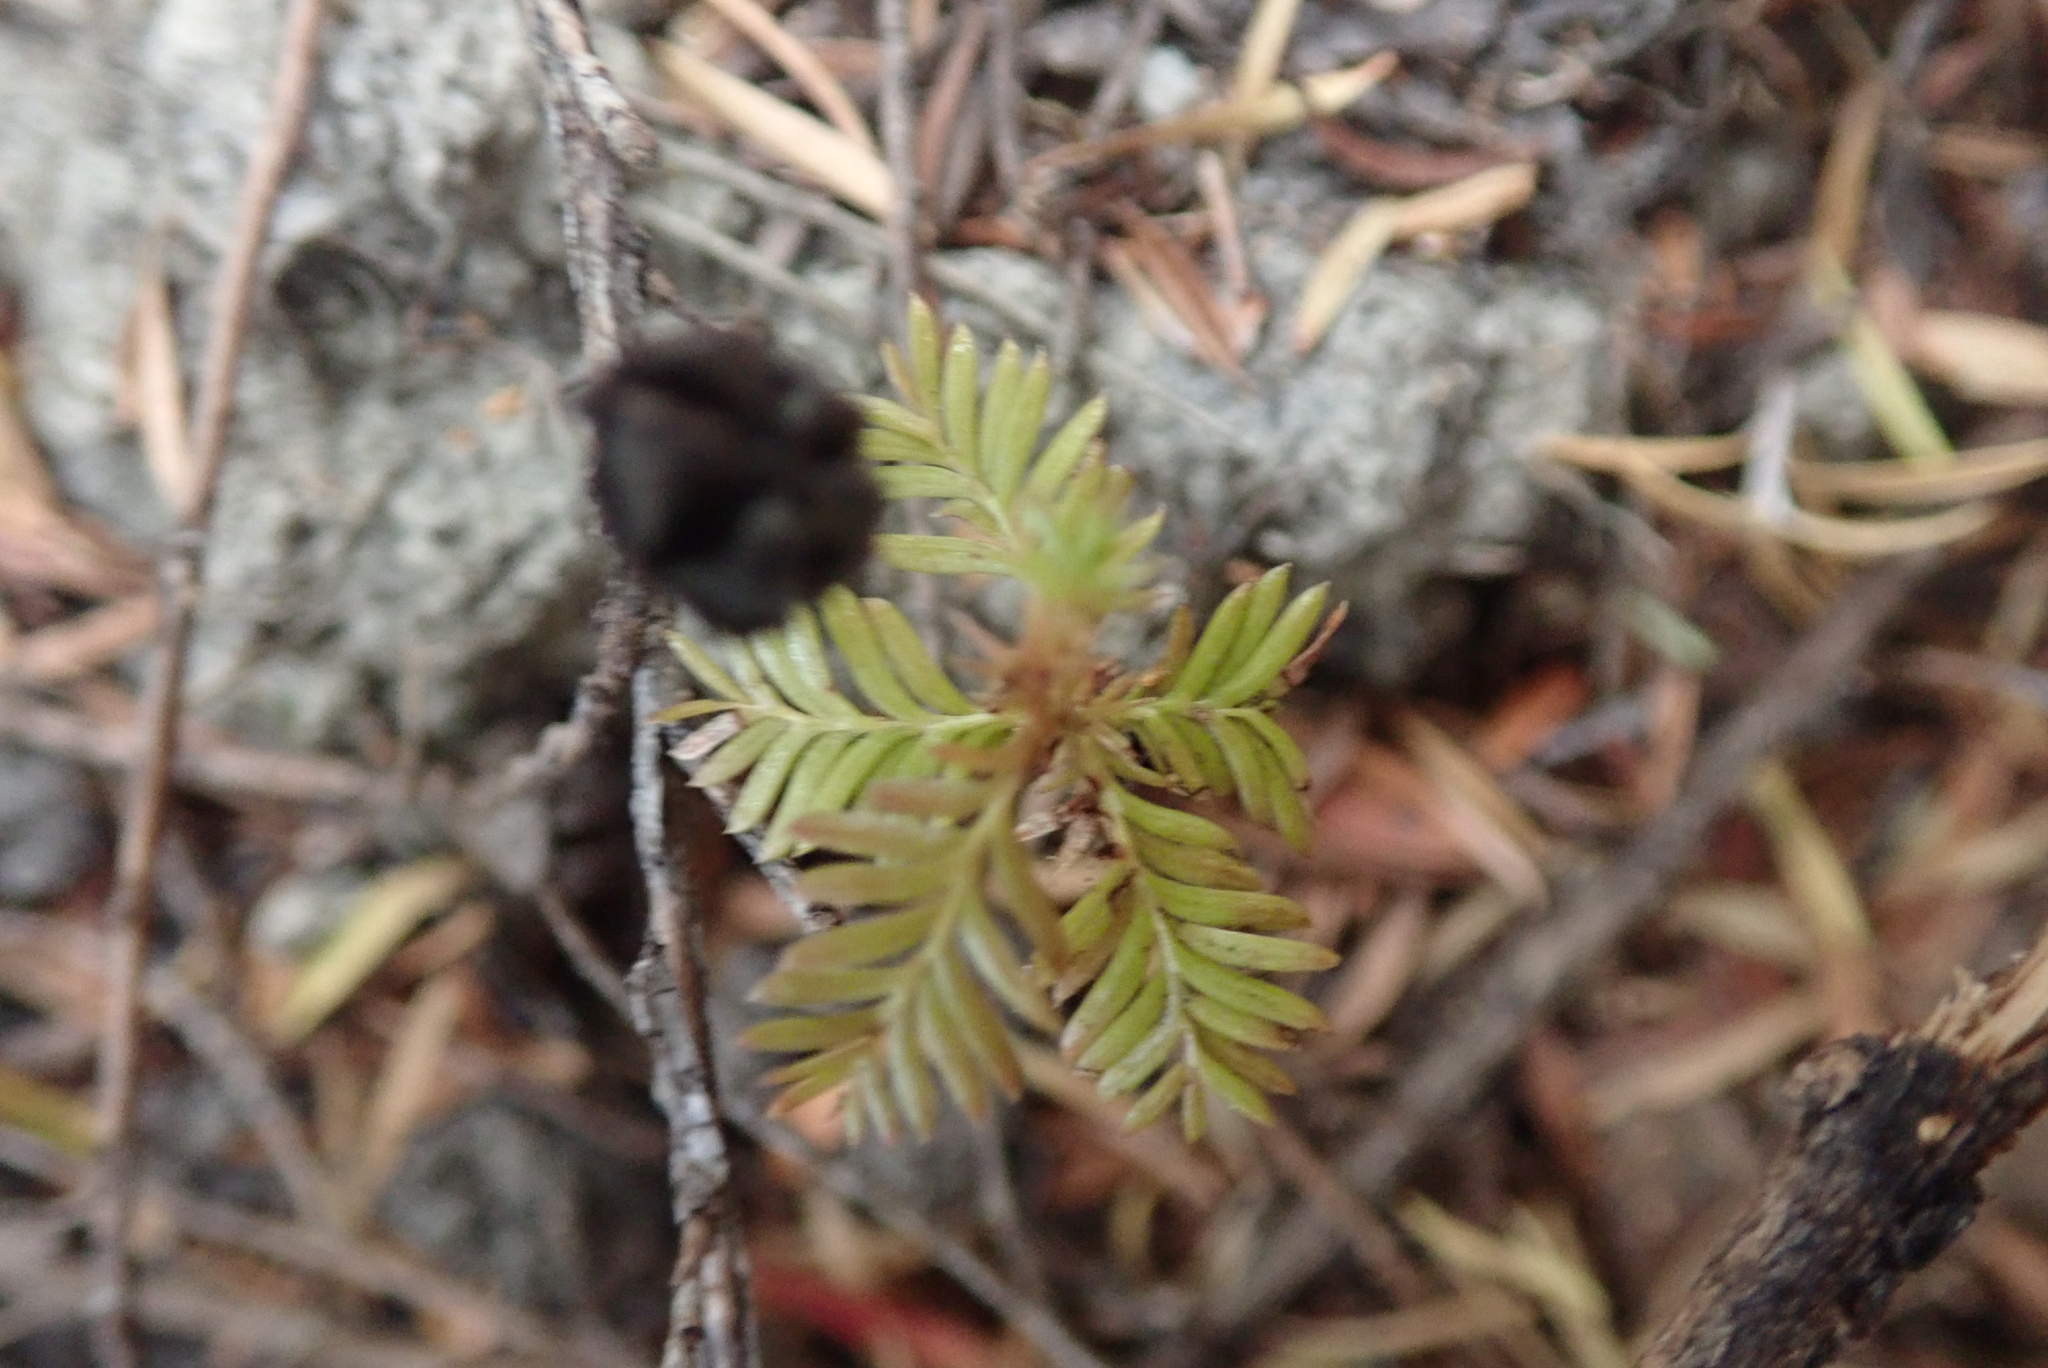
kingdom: Plantae
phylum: Tracheophyta
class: Pinopsida
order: Pinales
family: Podocarpaceae
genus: Dacrycarpus
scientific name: Dacrycarpus dacrydioides
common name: White pine
